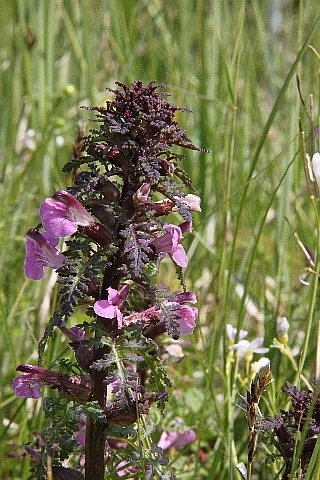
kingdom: Plantae
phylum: Tracheophyta
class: Magnoliopsida
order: Lamiales
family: Orobanchaceae
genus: Pedicularis
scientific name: Pedicularis palustris
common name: Marsh lousewort
